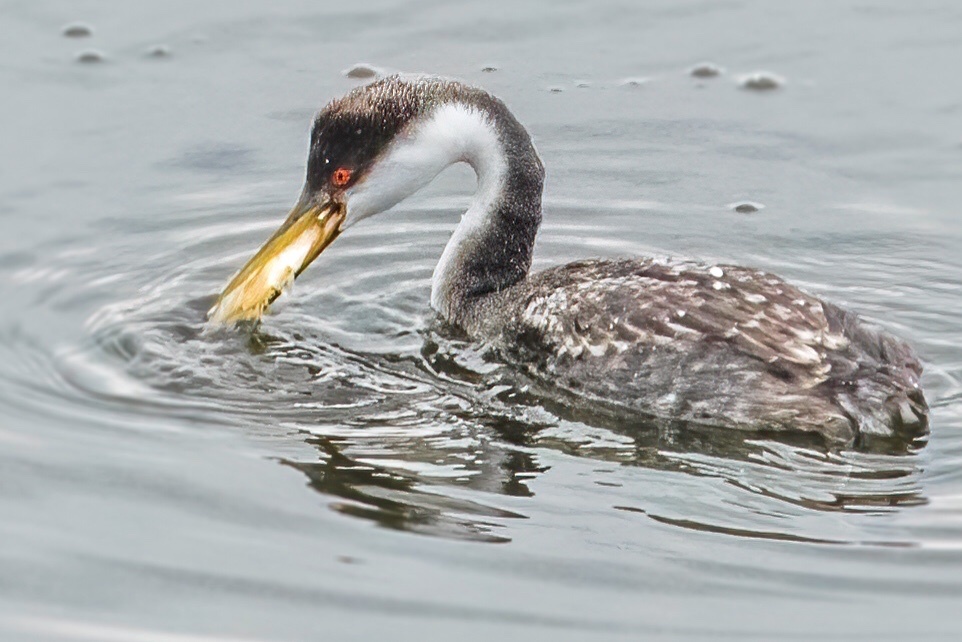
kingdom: Animalia
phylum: Chordata
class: Aves
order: Podicipediformes
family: Podicipedidae
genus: Aechmophorus
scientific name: Aechmophorus occidentalis
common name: Western grebe
